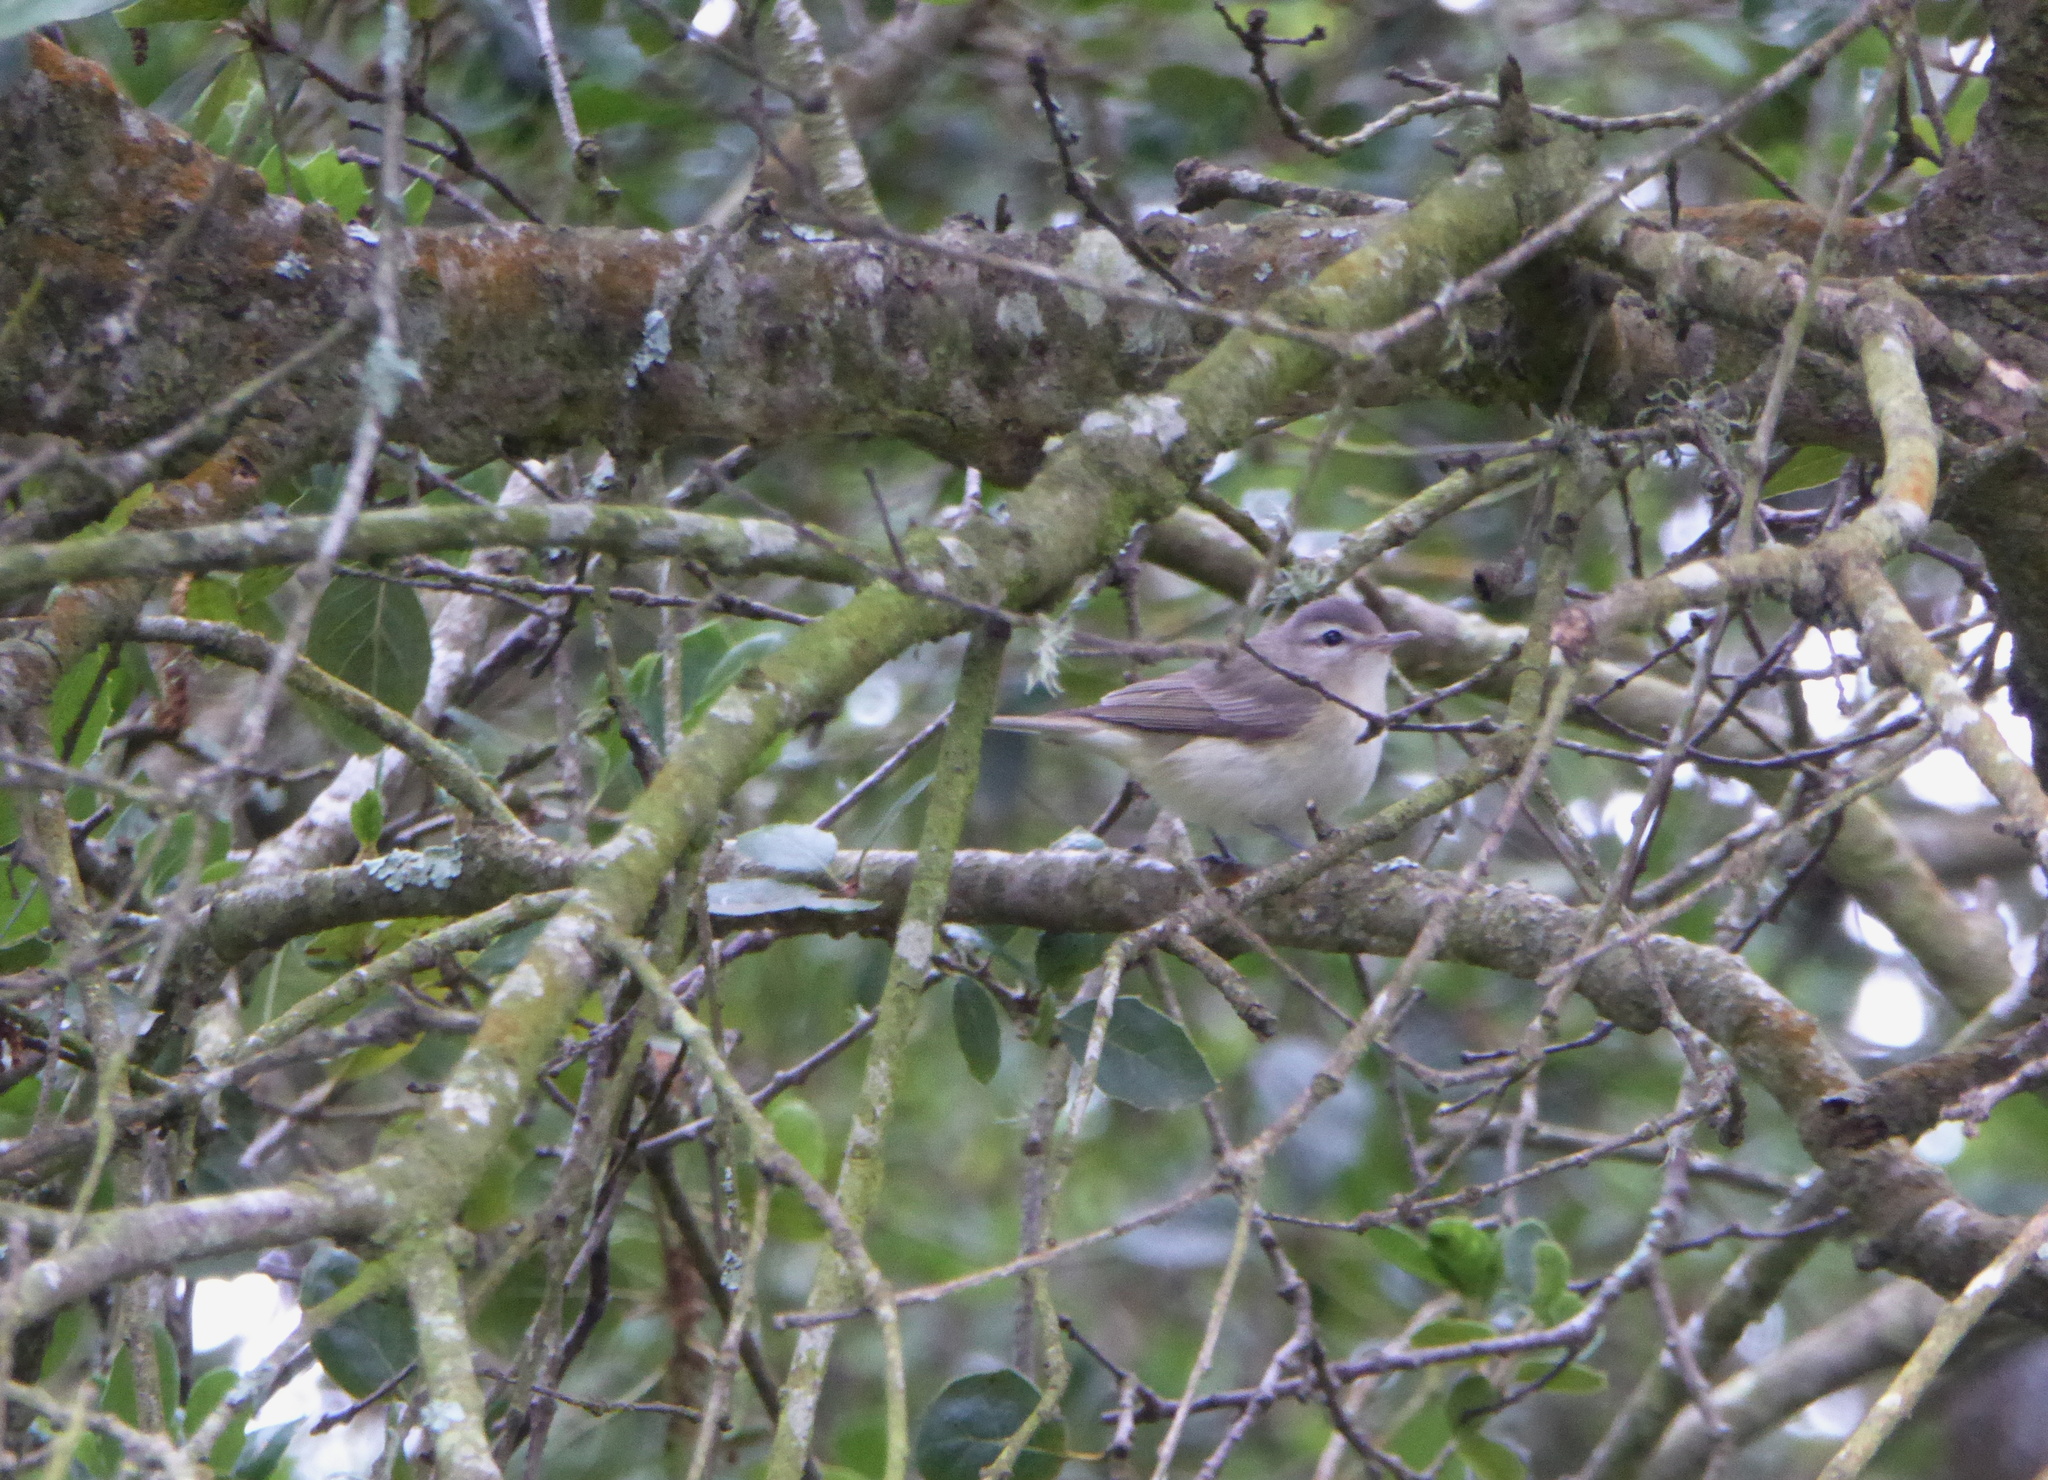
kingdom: Animalia
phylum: Chordata
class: Aves
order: Passeriformes
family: Vireonidae
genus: Vireo
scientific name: Vireo gilvus
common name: Warbling vireo
